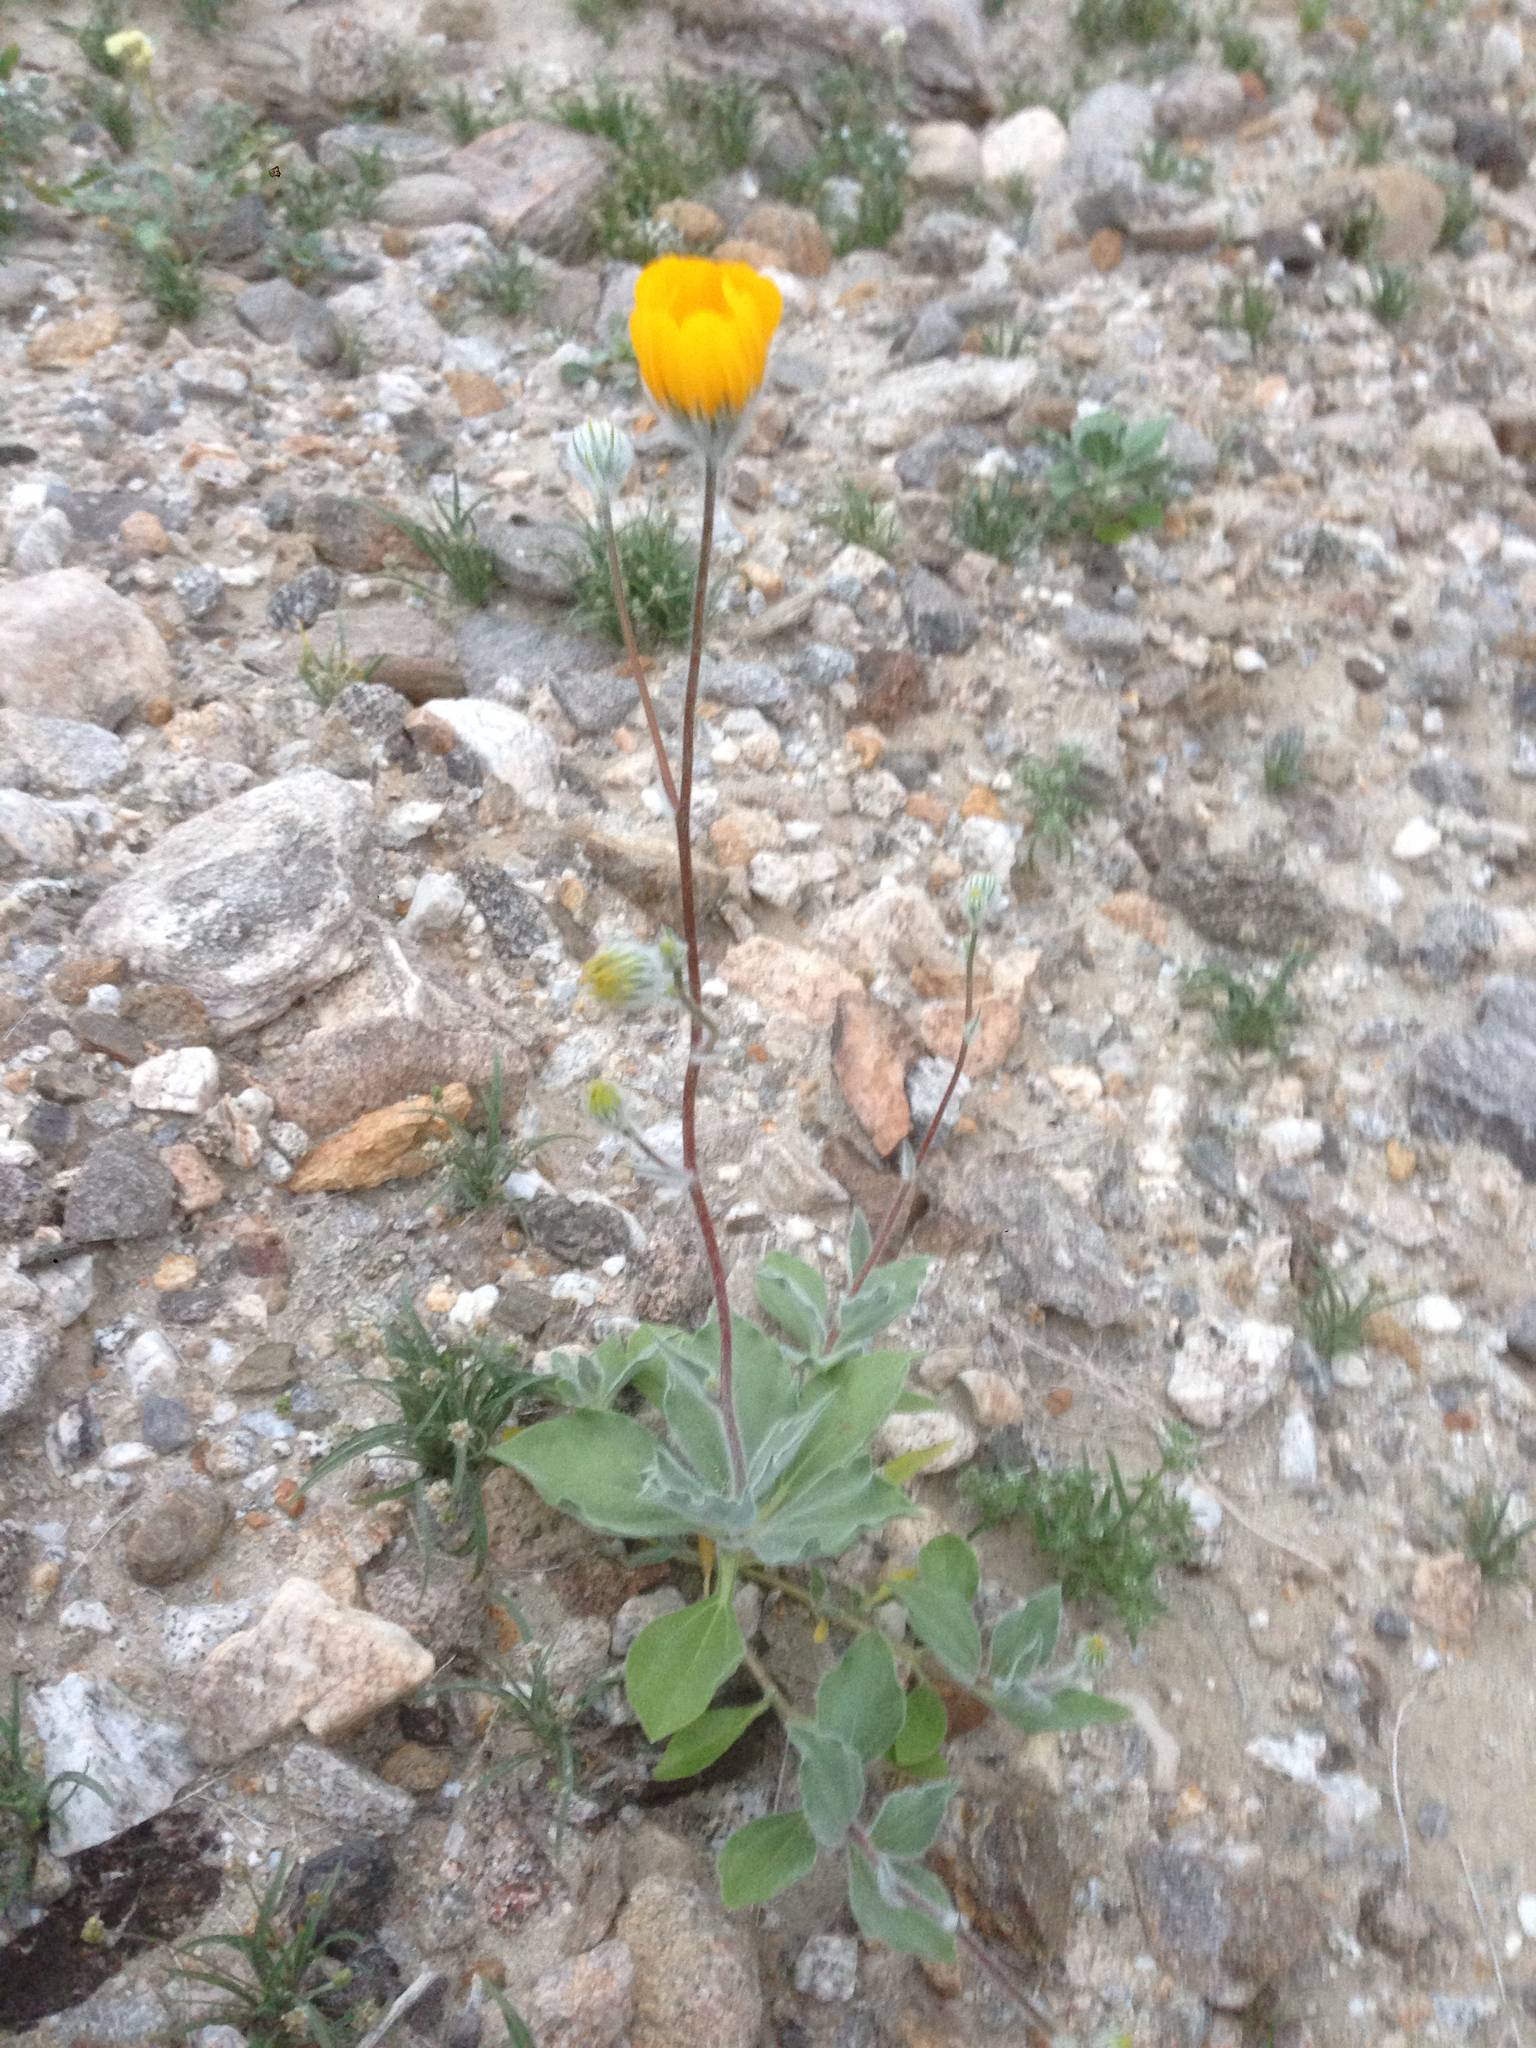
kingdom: Plantae
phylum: Tracheophyta
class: Magnoliopsida
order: Asterales
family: Asteraceae
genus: Geraea
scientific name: Geraea canescens
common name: Desert-gold
